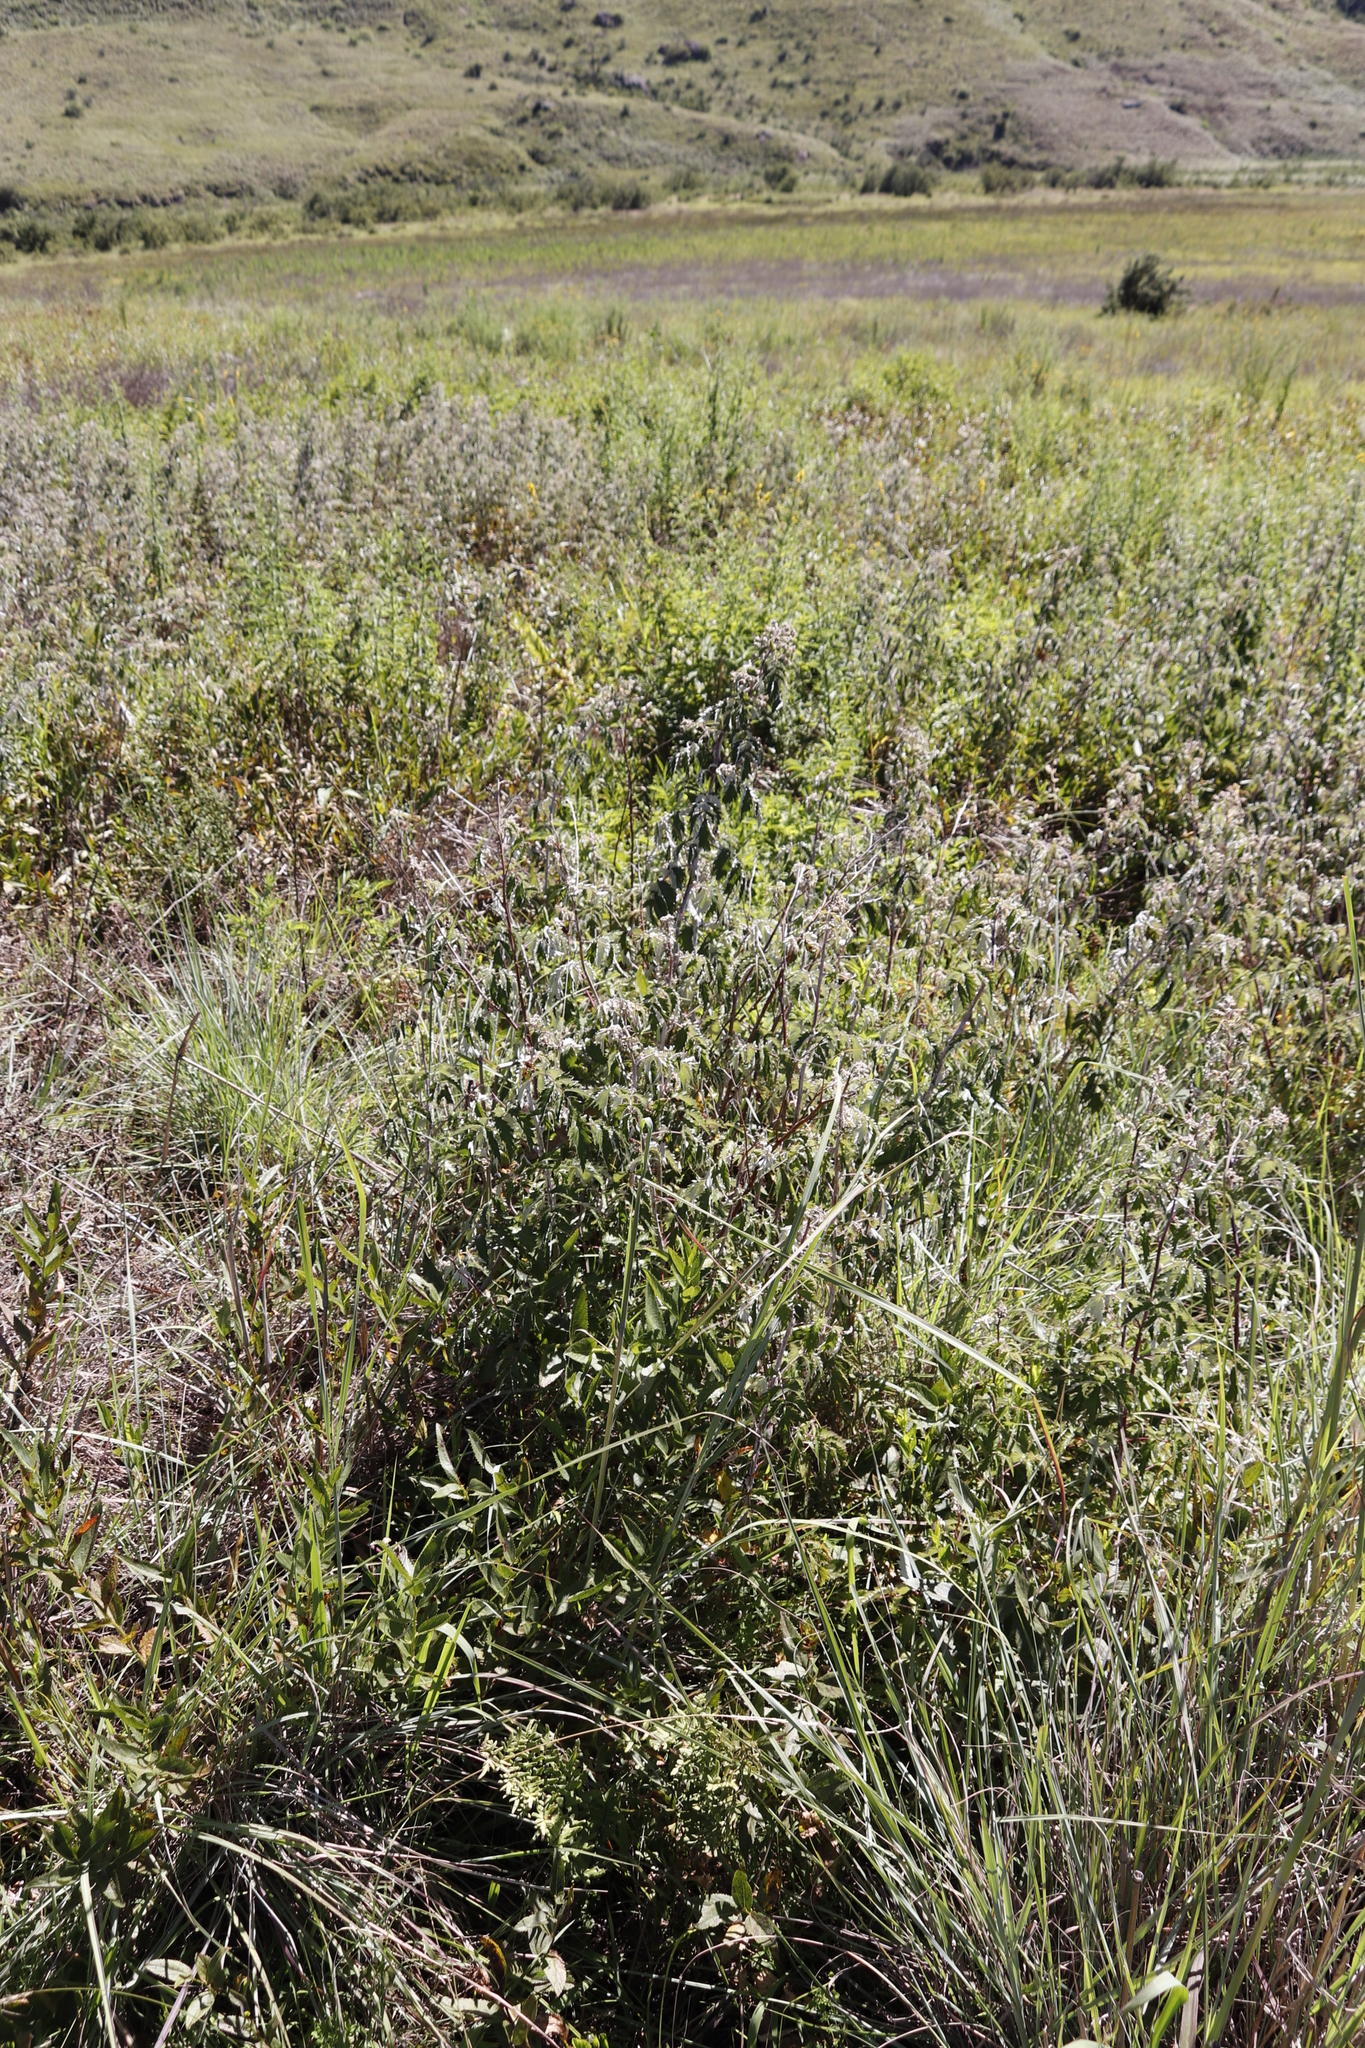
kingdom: Plantae
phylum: Tracheophyta
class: Magnoliopsida
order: Rosales
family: Rosaceae
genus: Rubus
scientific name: Rubus ludwigii
